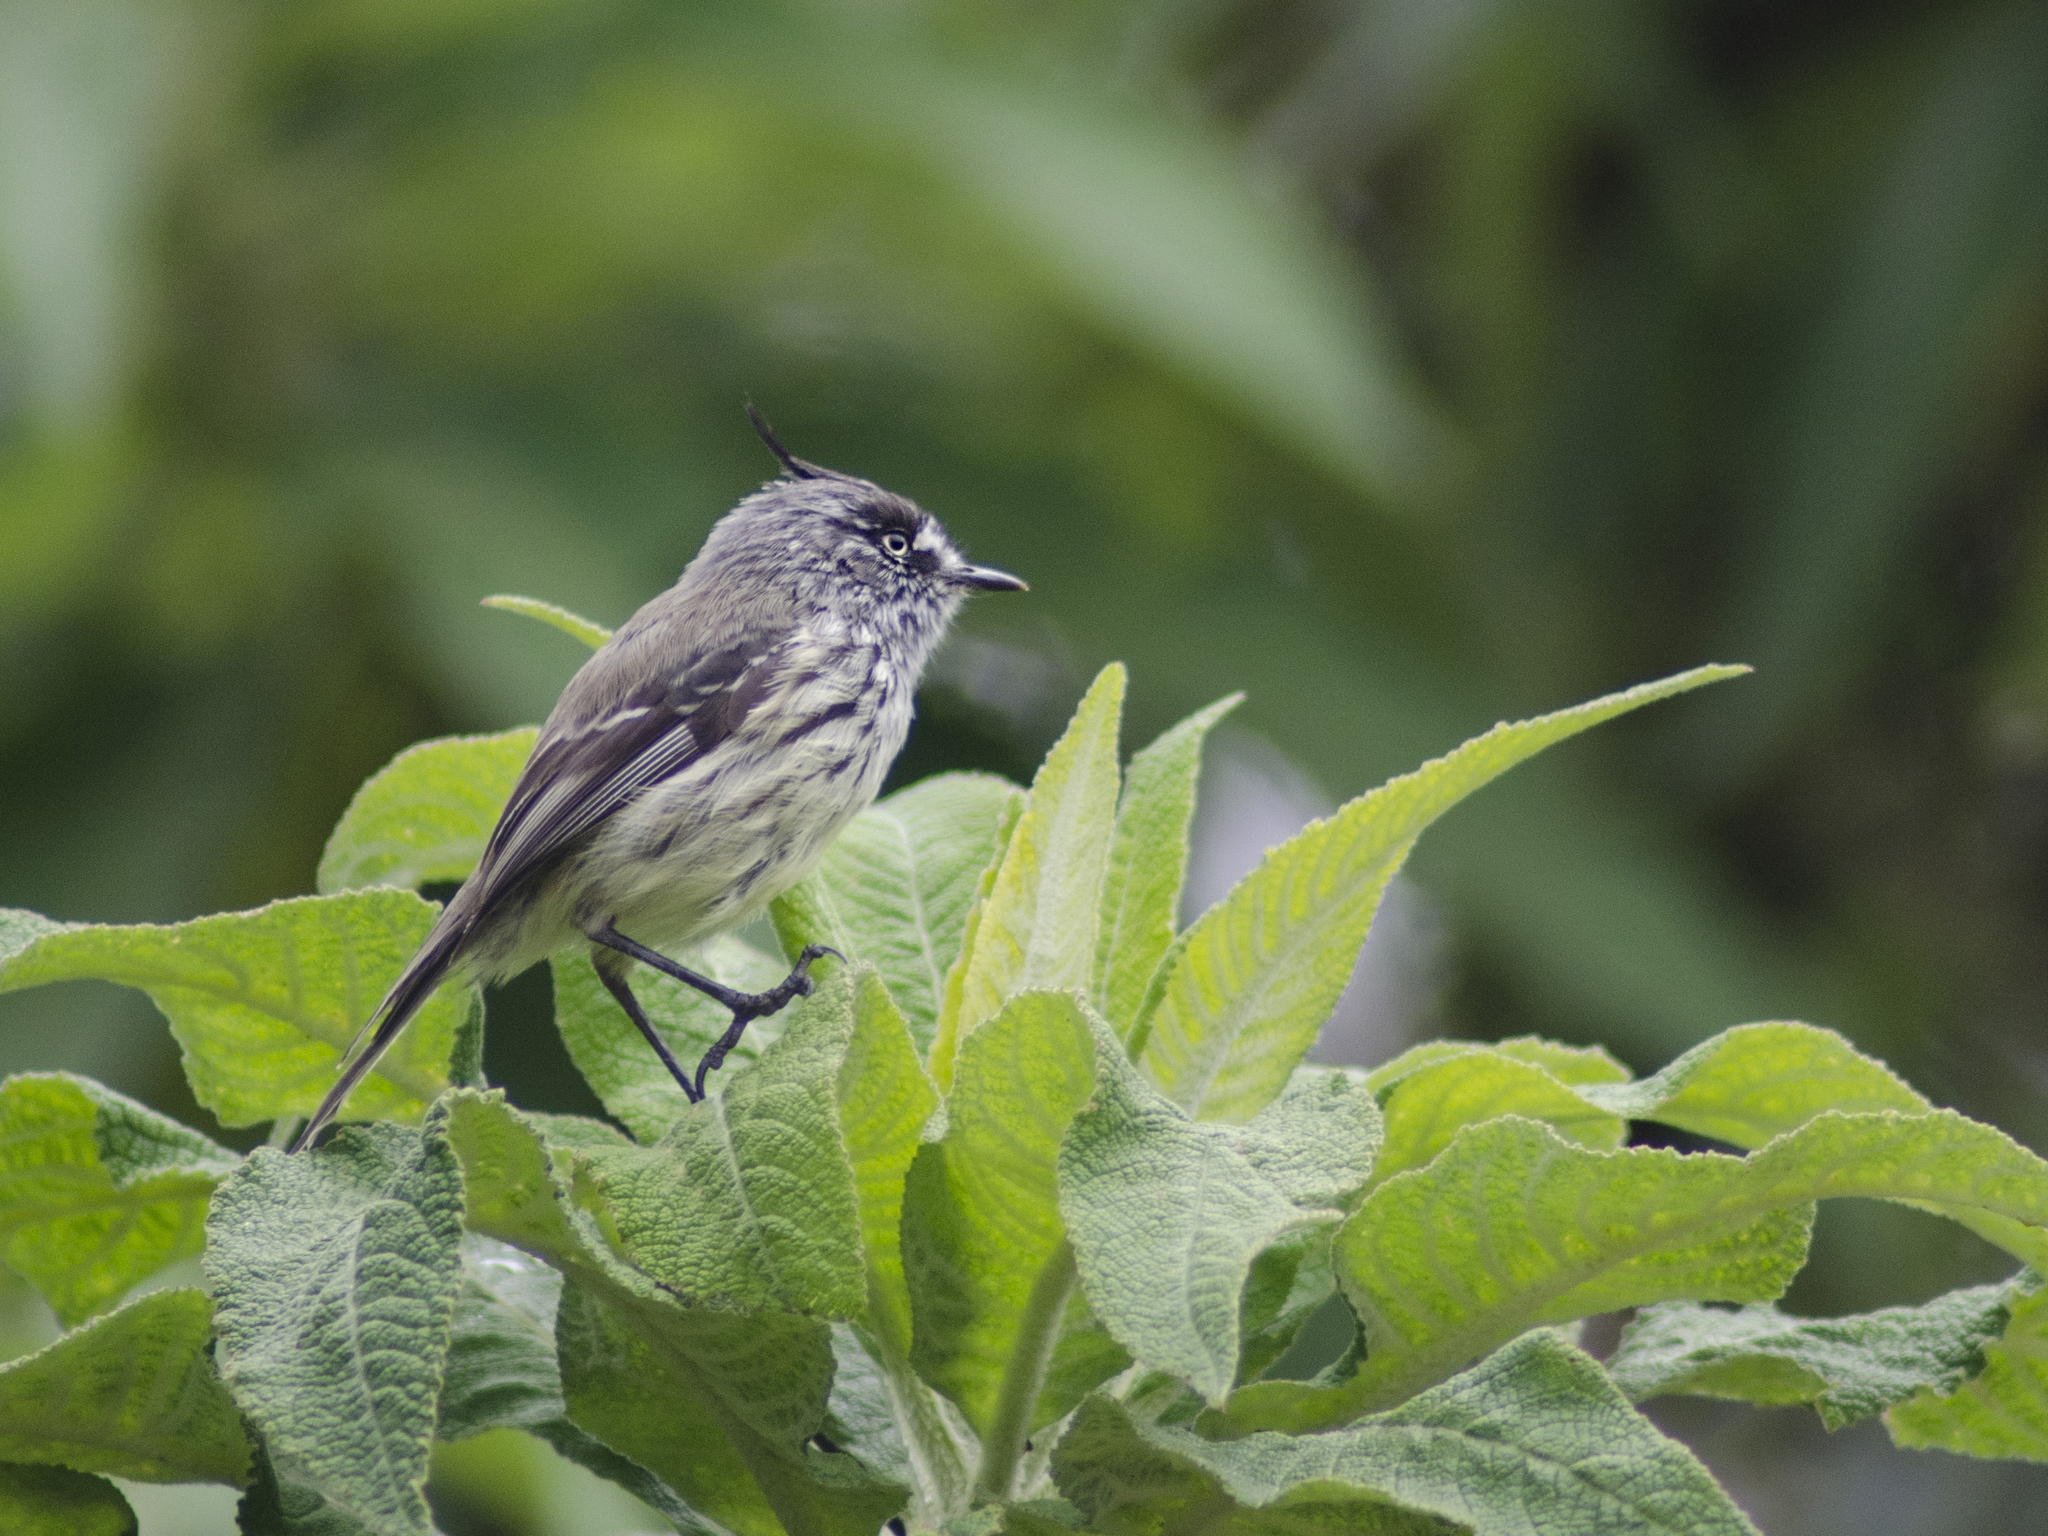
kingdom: Animalia
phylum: Chordata
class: Aves
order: Passeriformes
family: Tyrannidae
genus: Anairetes
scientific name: Anairetes parulus
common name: Tufted tit-tyrant
